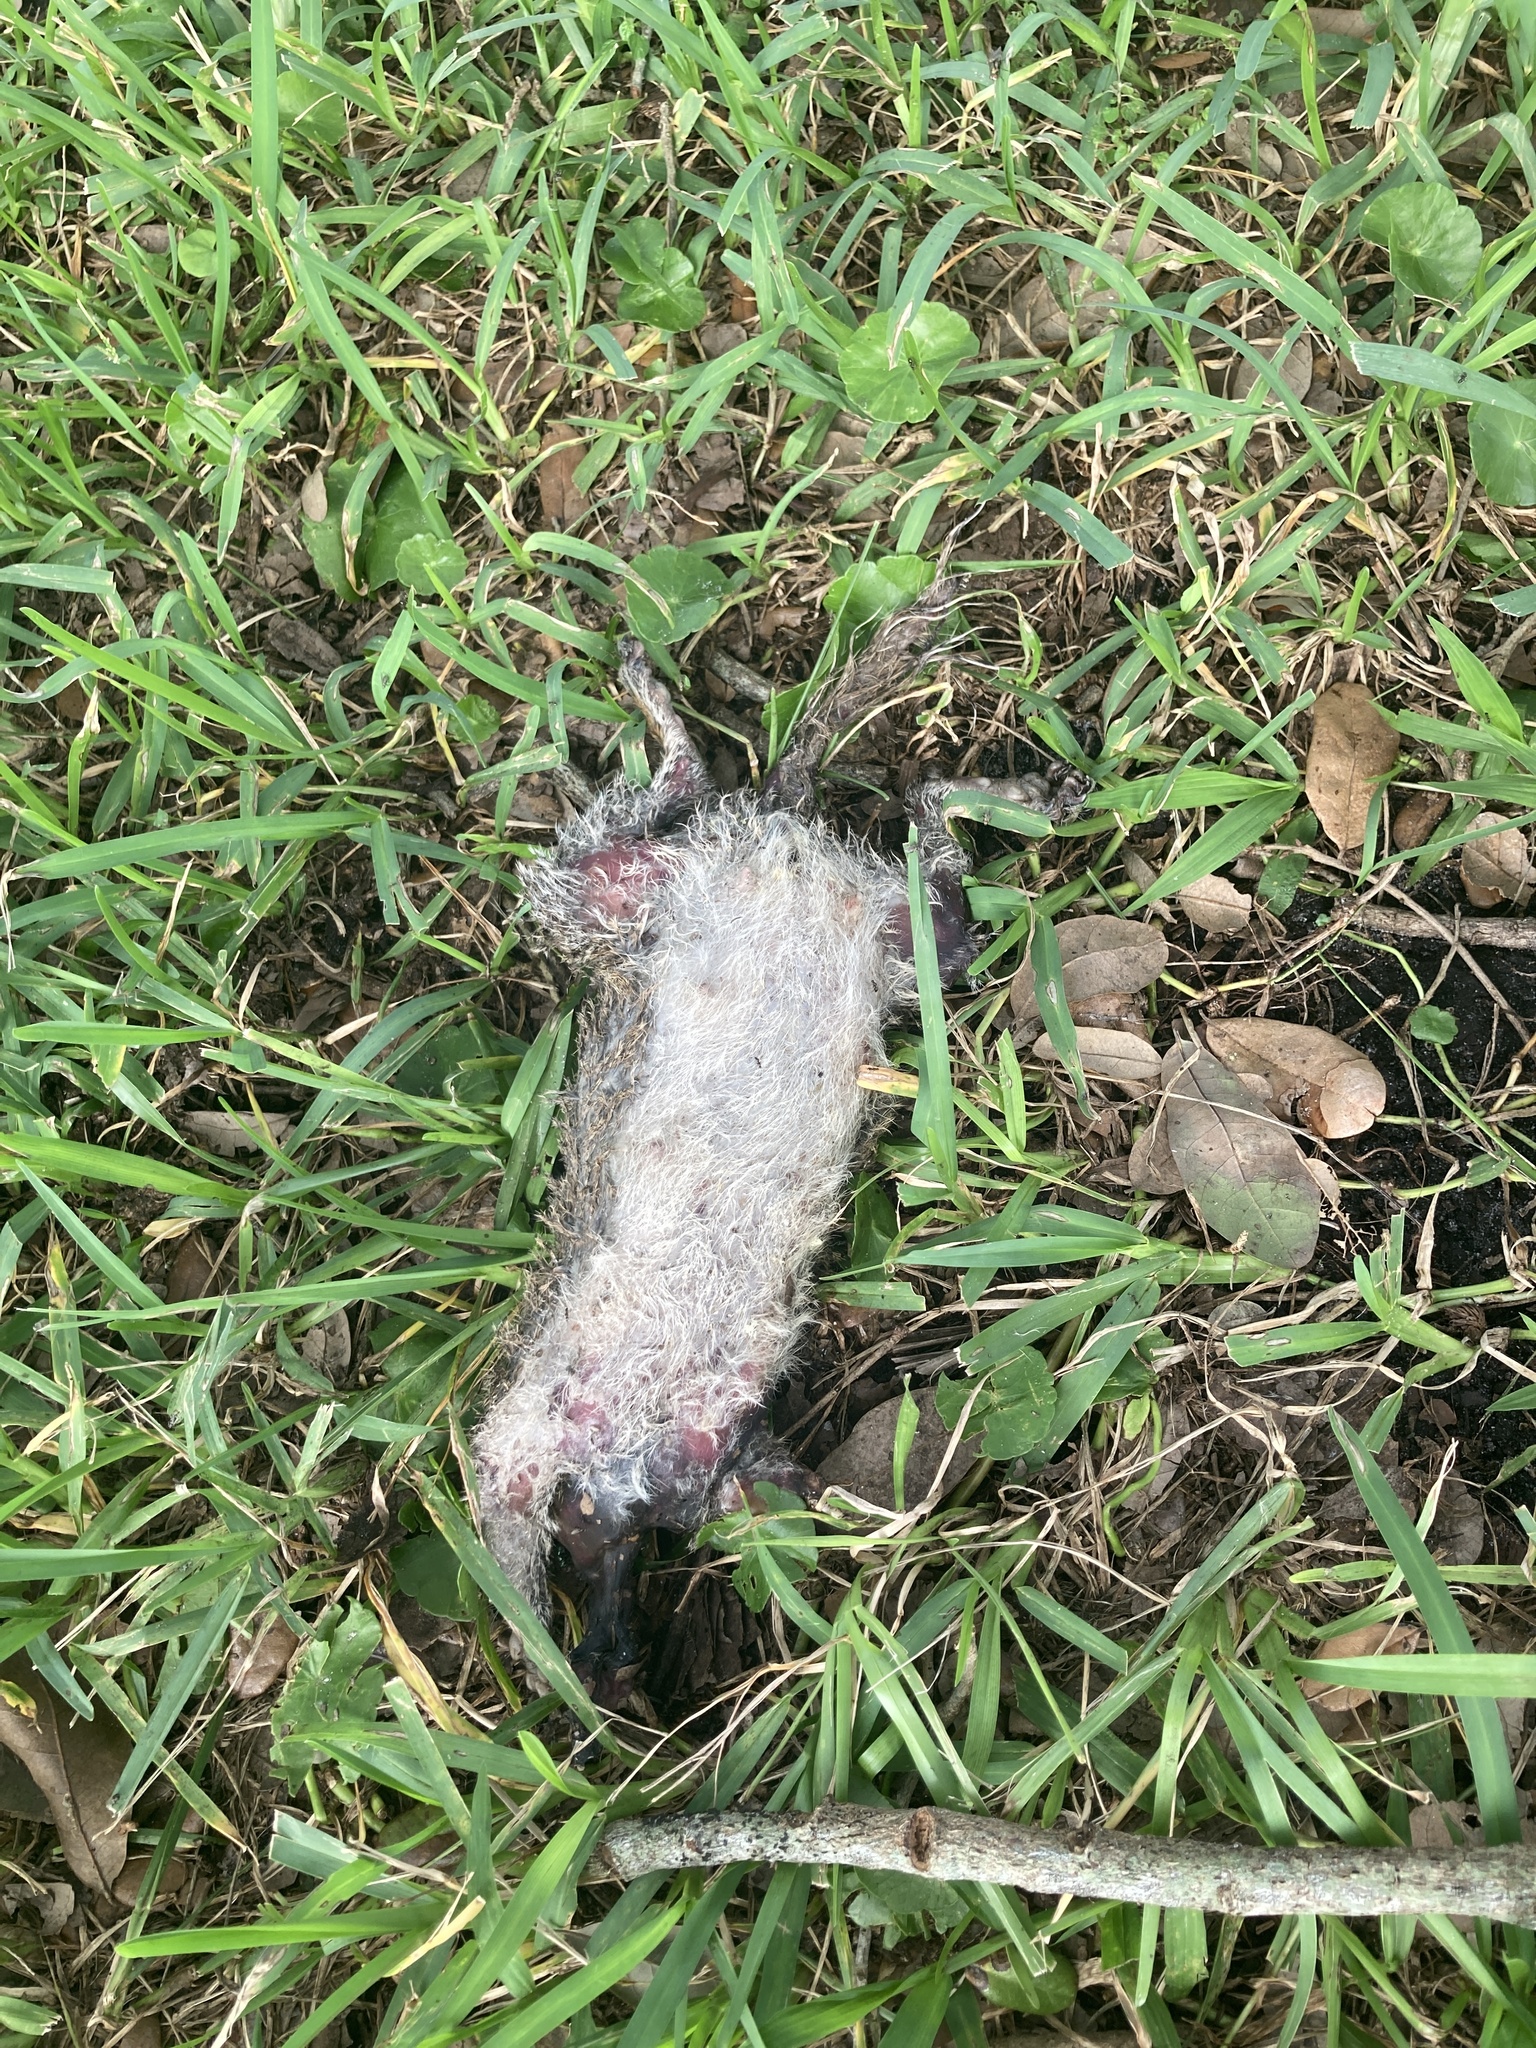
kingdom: Animalia
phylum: Chordata
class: Mammalia
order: Rodentia
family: Sciuridae
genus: Sciurus
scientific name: Sciurus carolinensis
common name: Eastern gray squirrel
